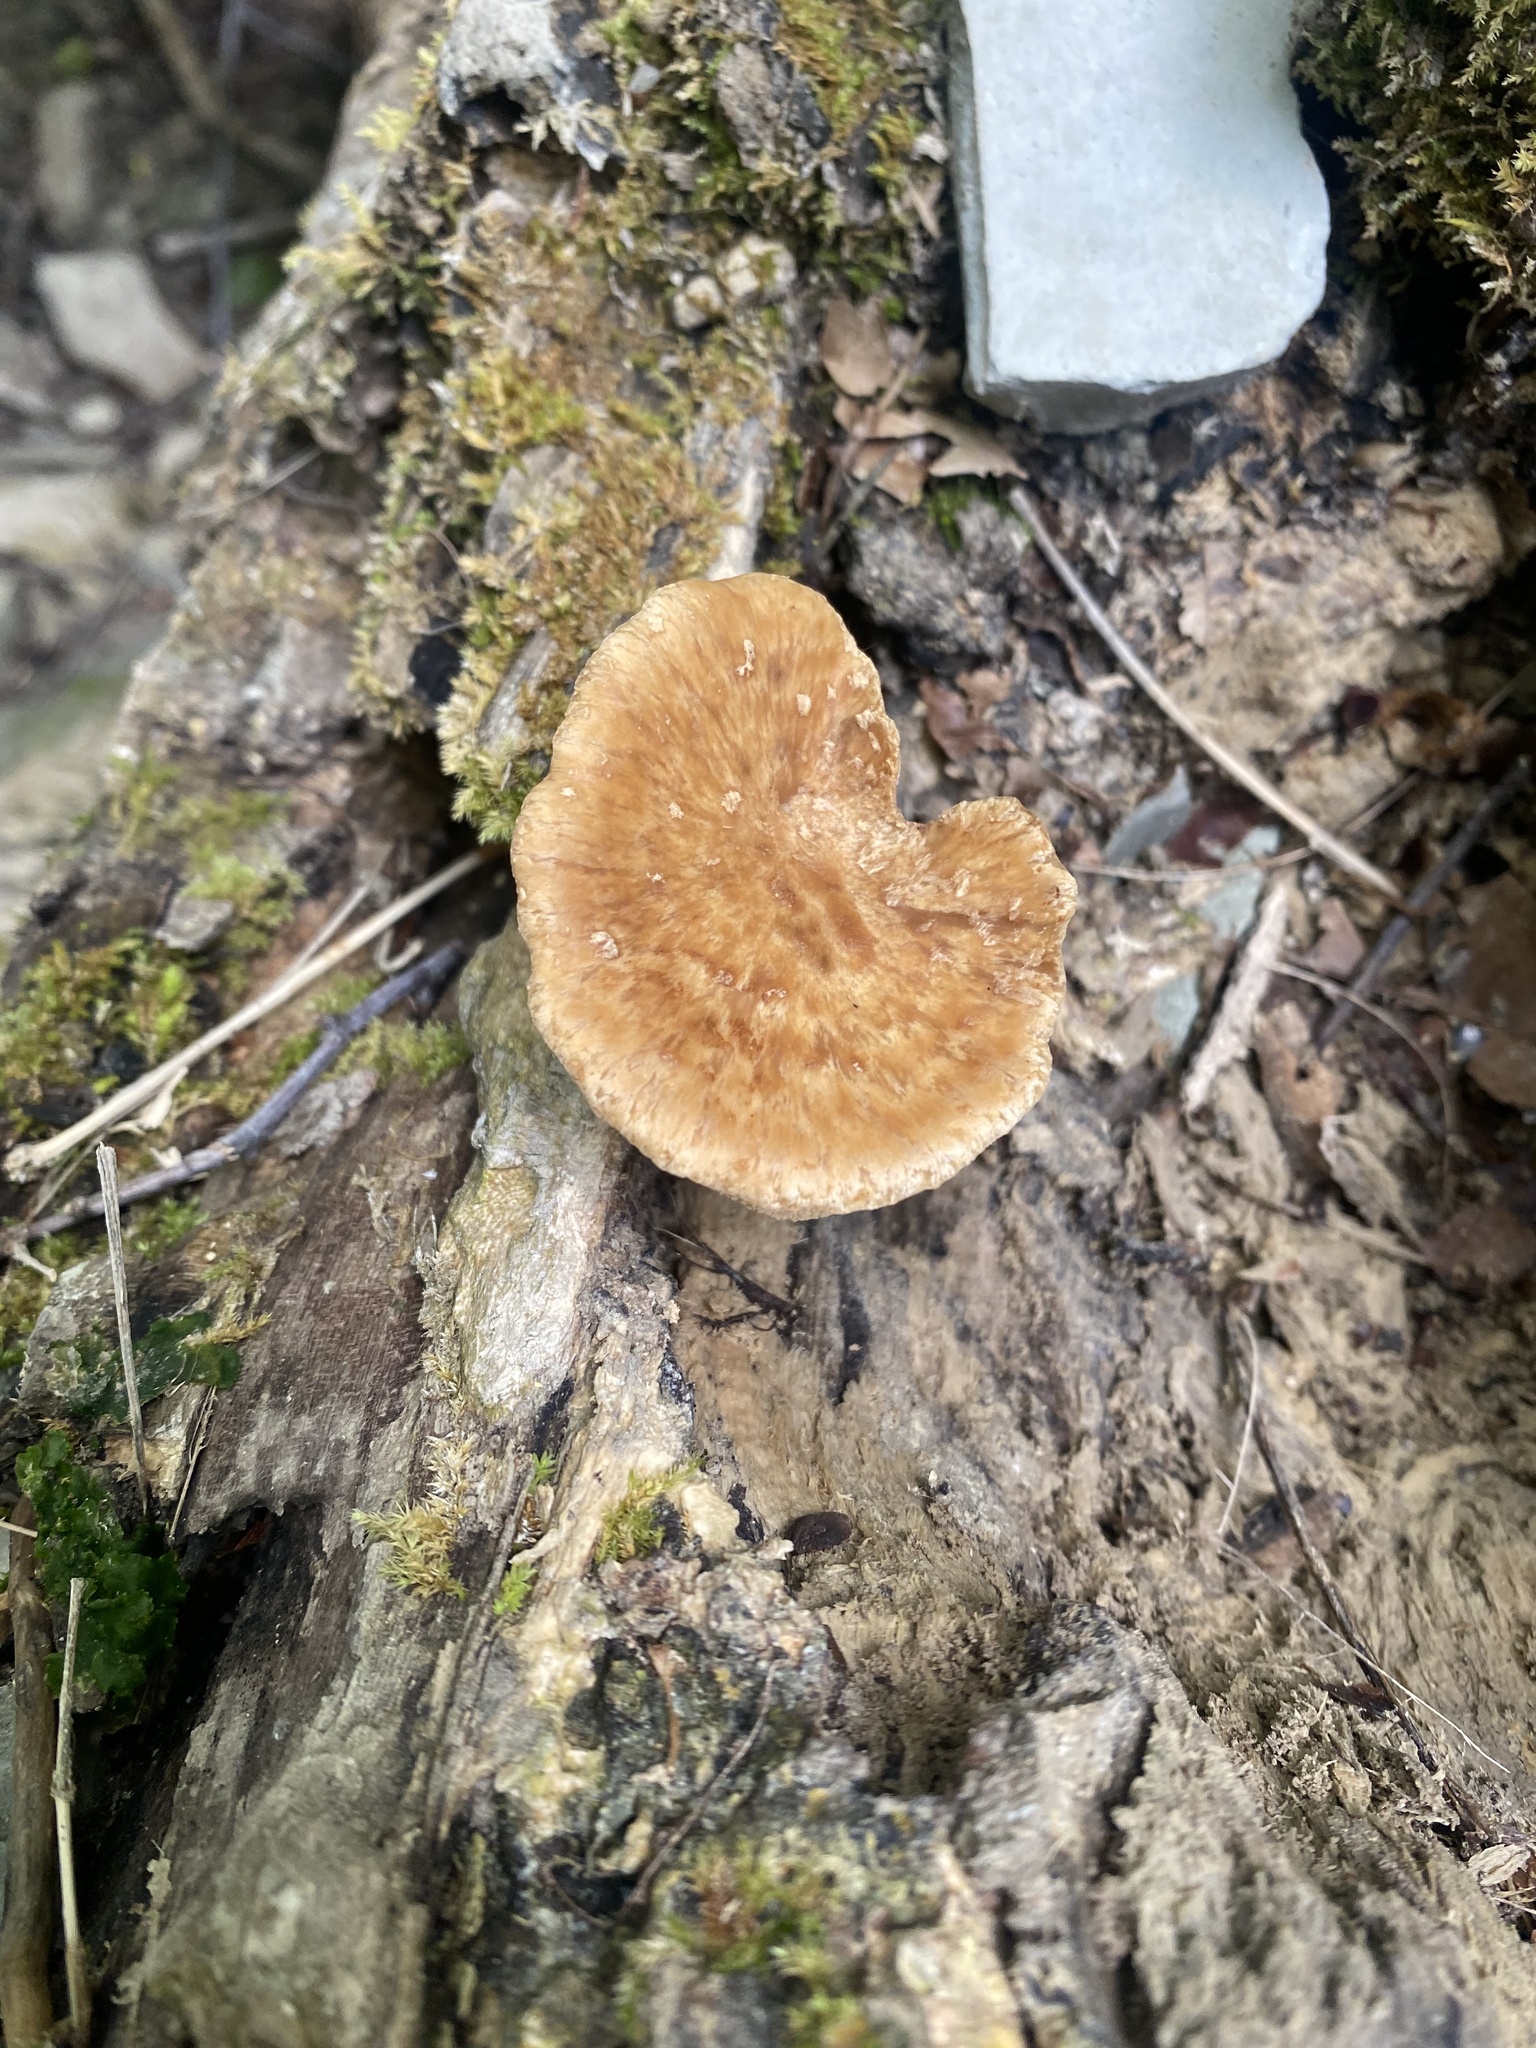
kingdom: Fungi
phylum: Basidiomycota
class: Agaricomycetes
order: Polyporales
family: Polyporaceae
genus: Cerioporus
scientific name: Cerioporus squamosus
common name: Dryad's saddle
